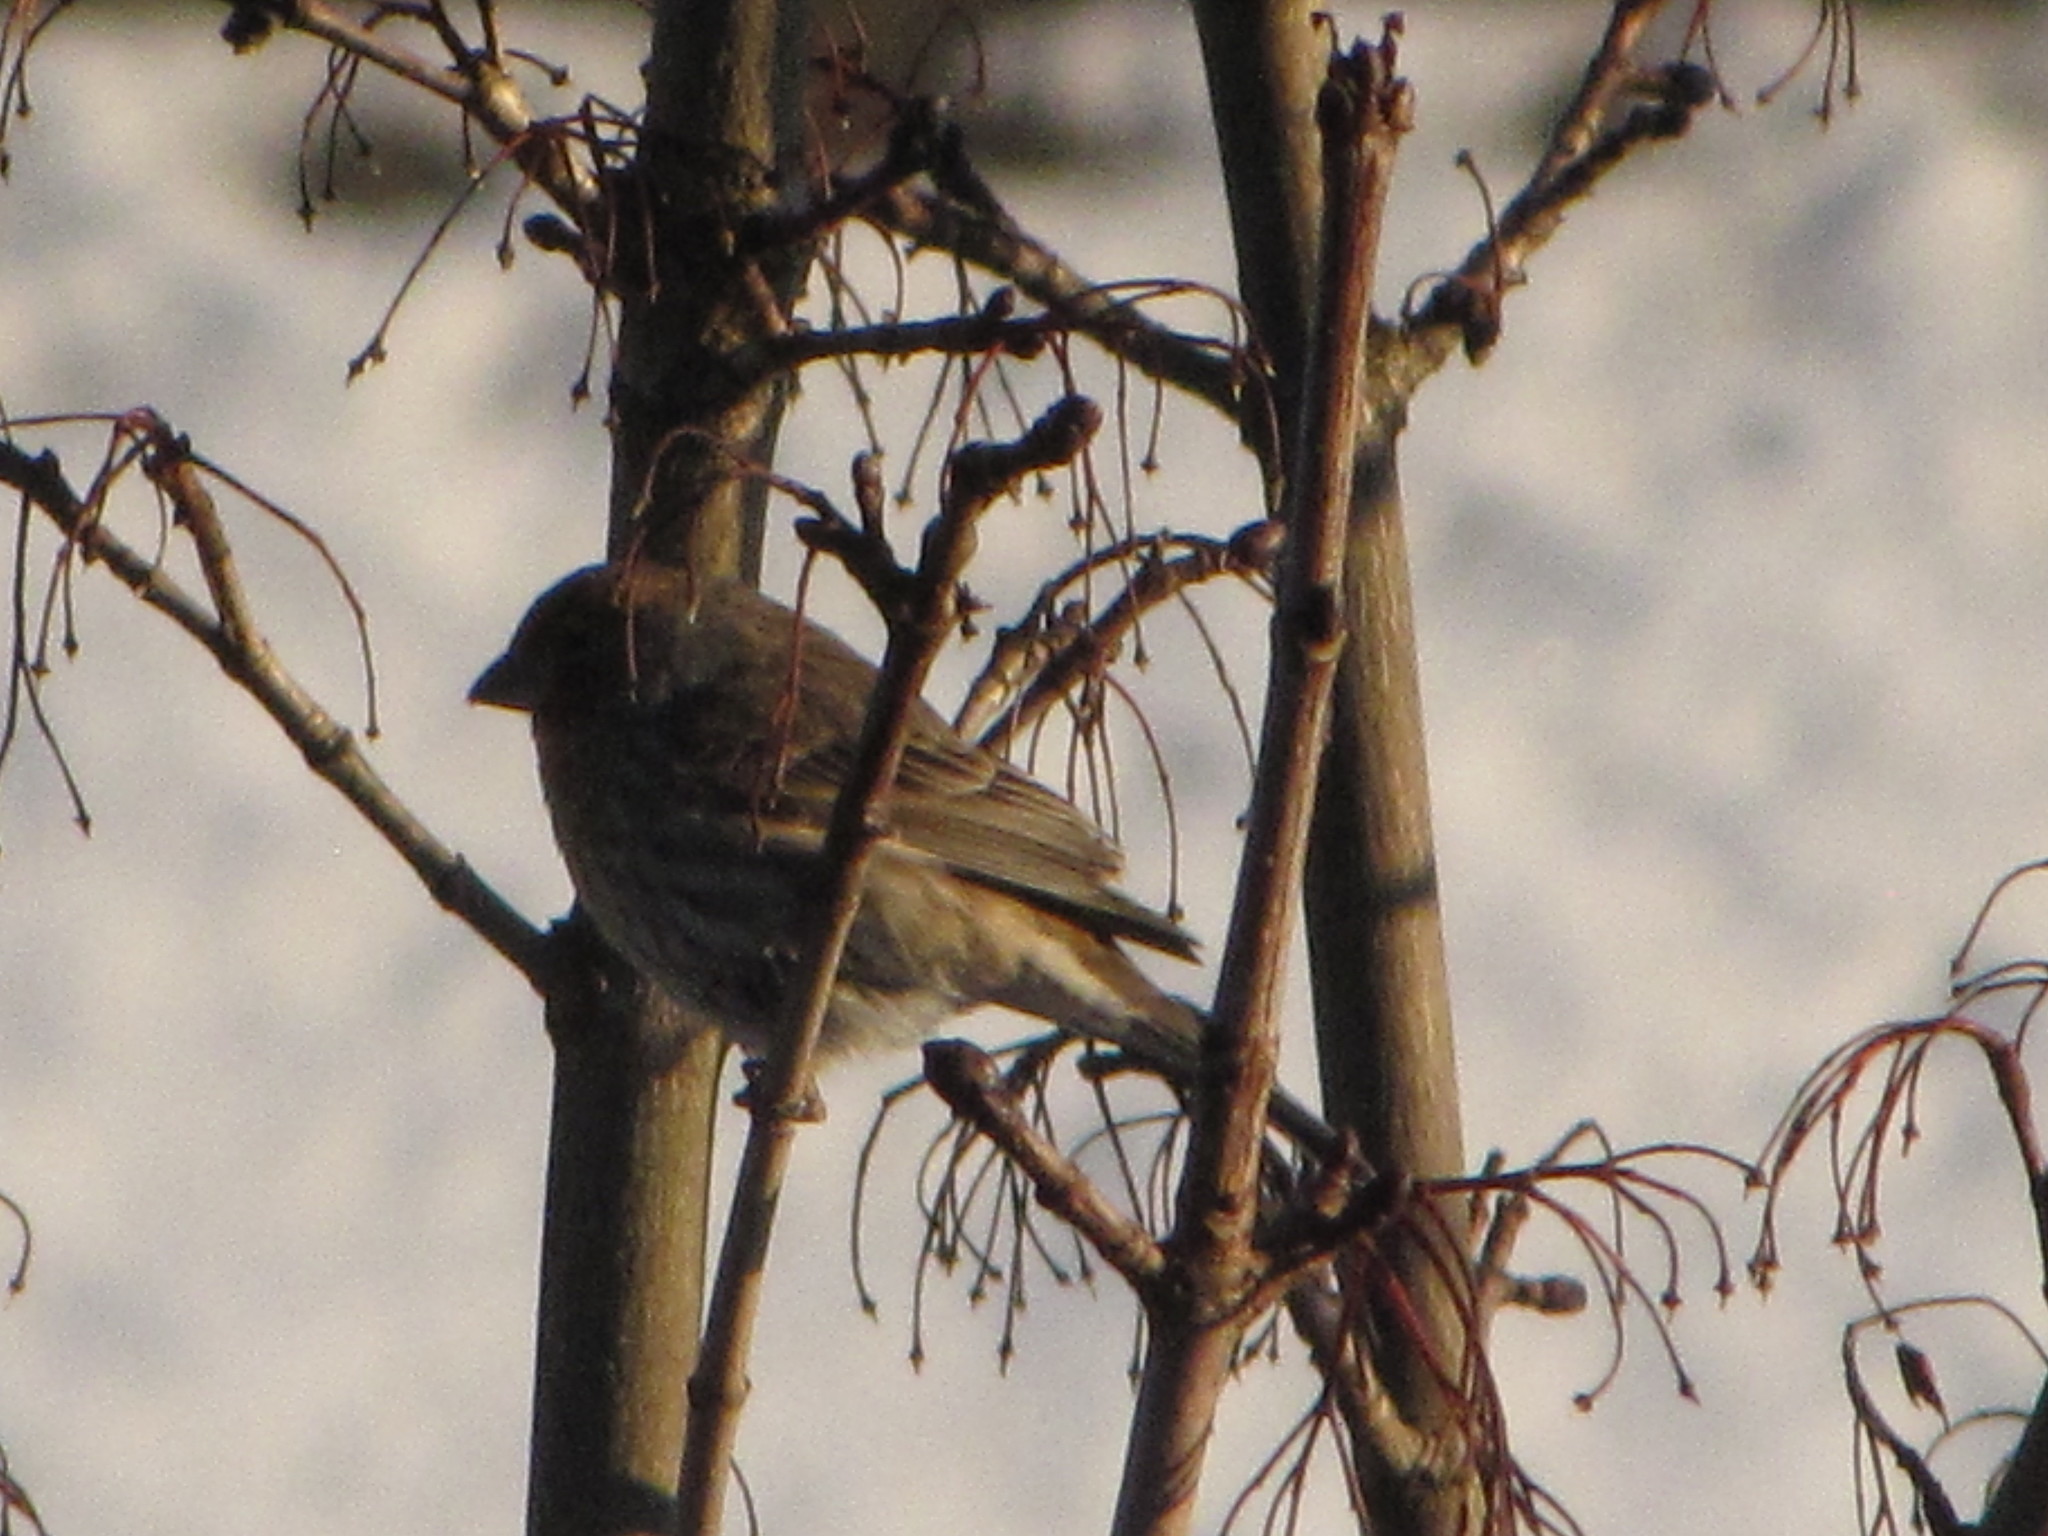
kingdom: Animalia
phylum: Chordata
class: Aves
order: Passeriformes
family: Fringillidae
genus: Haemorhous
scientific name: Haemorhous mexicanus
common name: House finch
